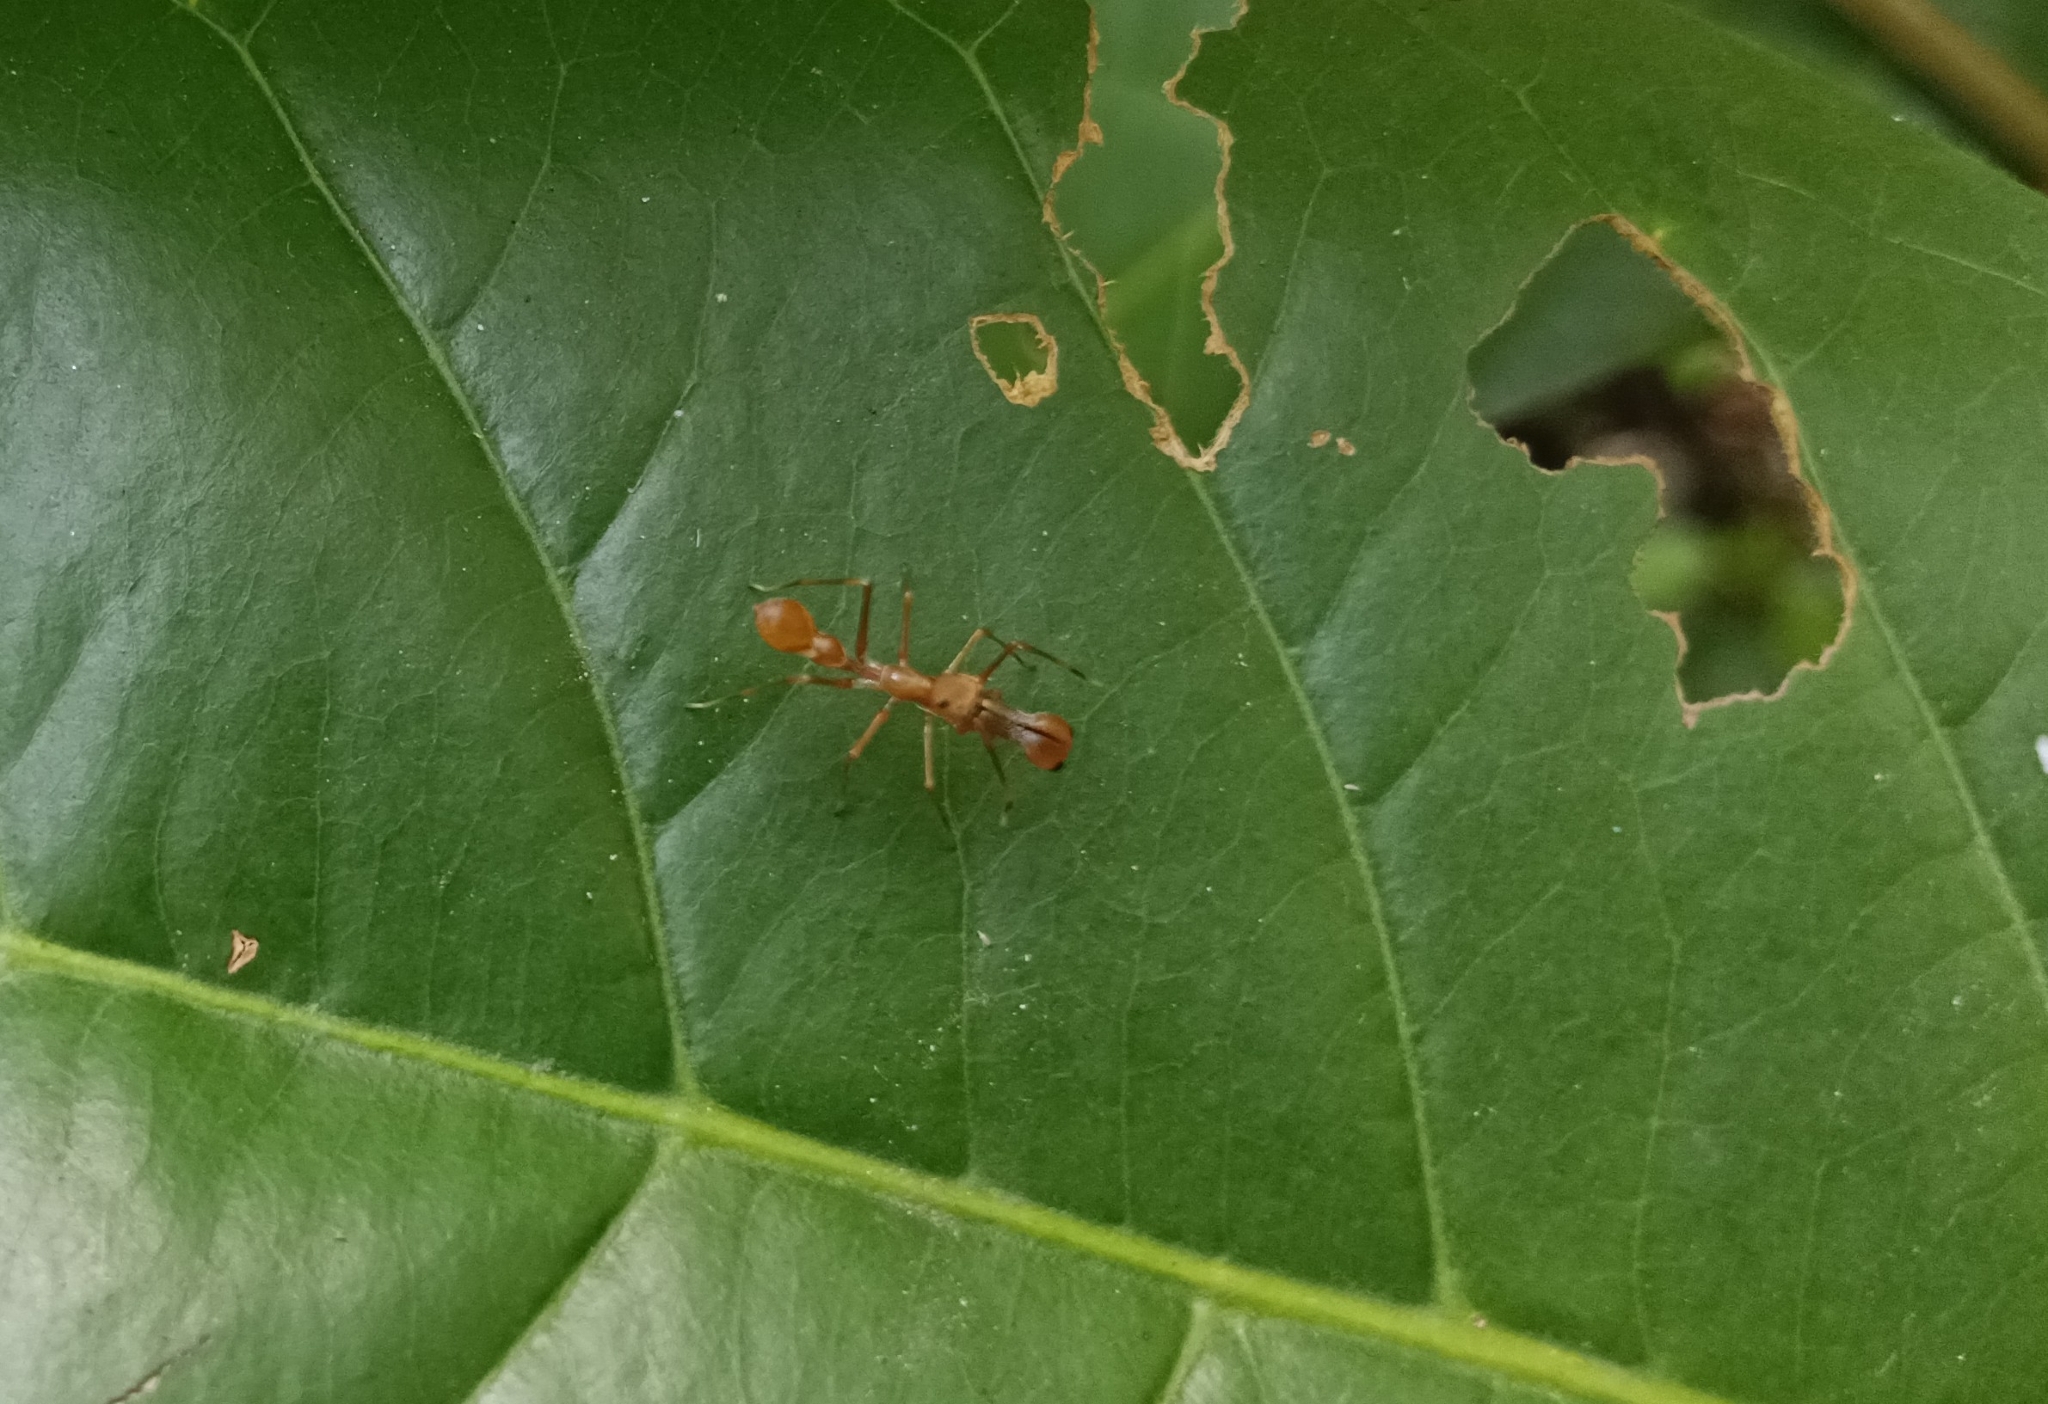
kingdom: Animalia
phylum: Arthropoda
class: Arachnida
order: Araneae
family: Salticidae
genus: Myrmaplata
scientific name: Myrmaplata plataleoides
